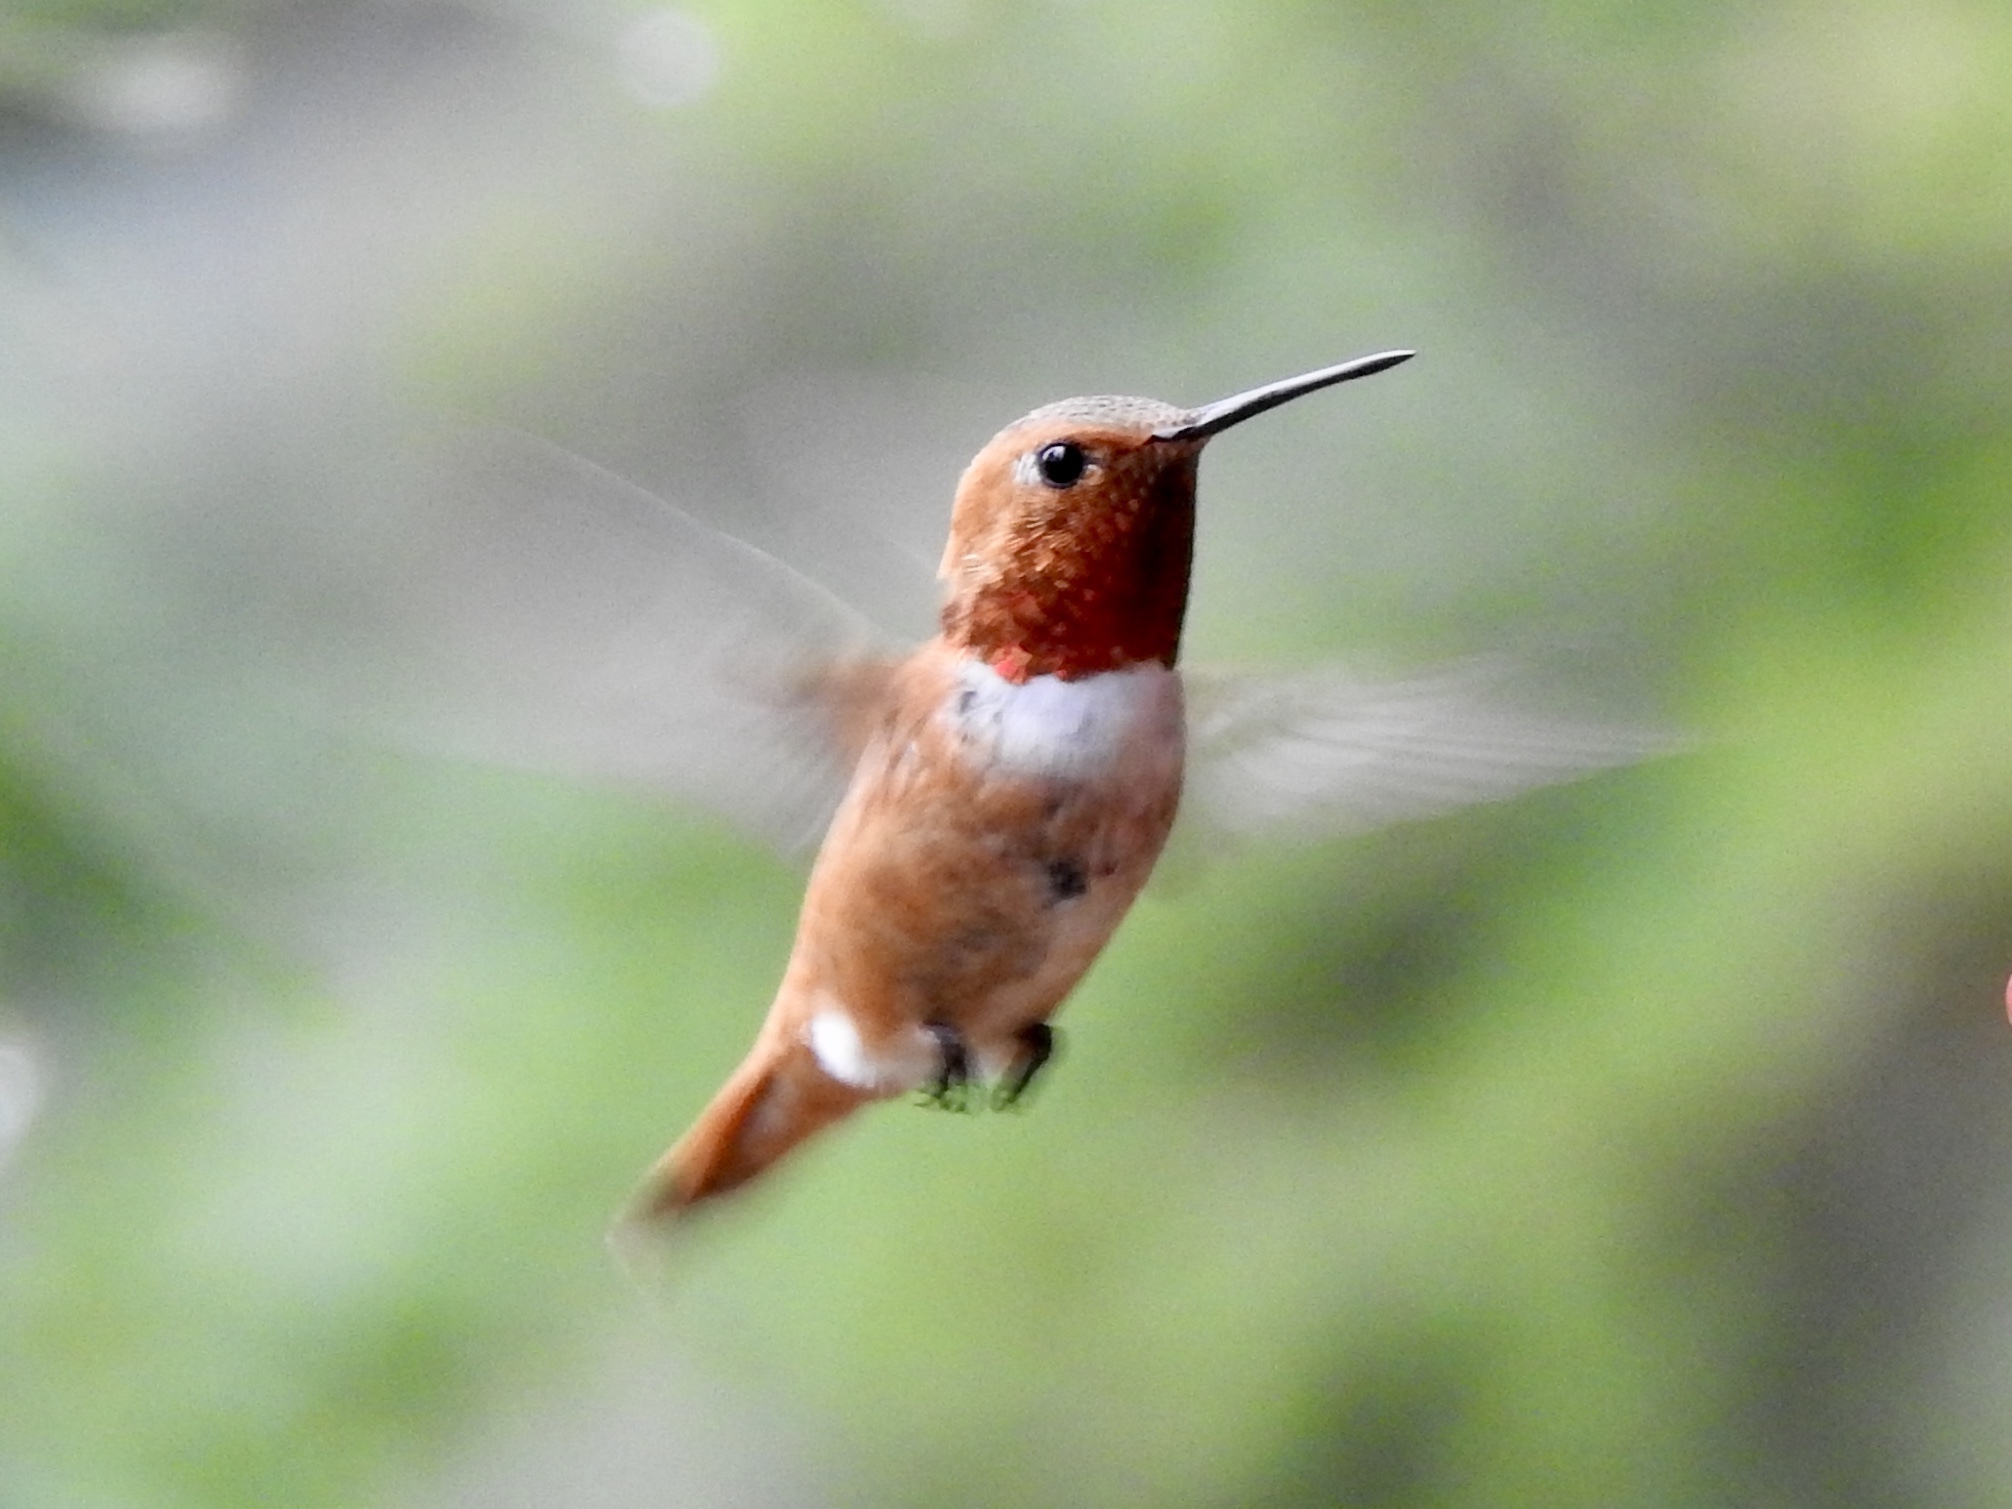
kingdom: Animalia
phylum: Chordata
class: Aves
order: Apodiformes
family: Trochilidae
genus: Selasphorus
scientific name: Selasphorus rufus
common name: Rufous hummingbird
